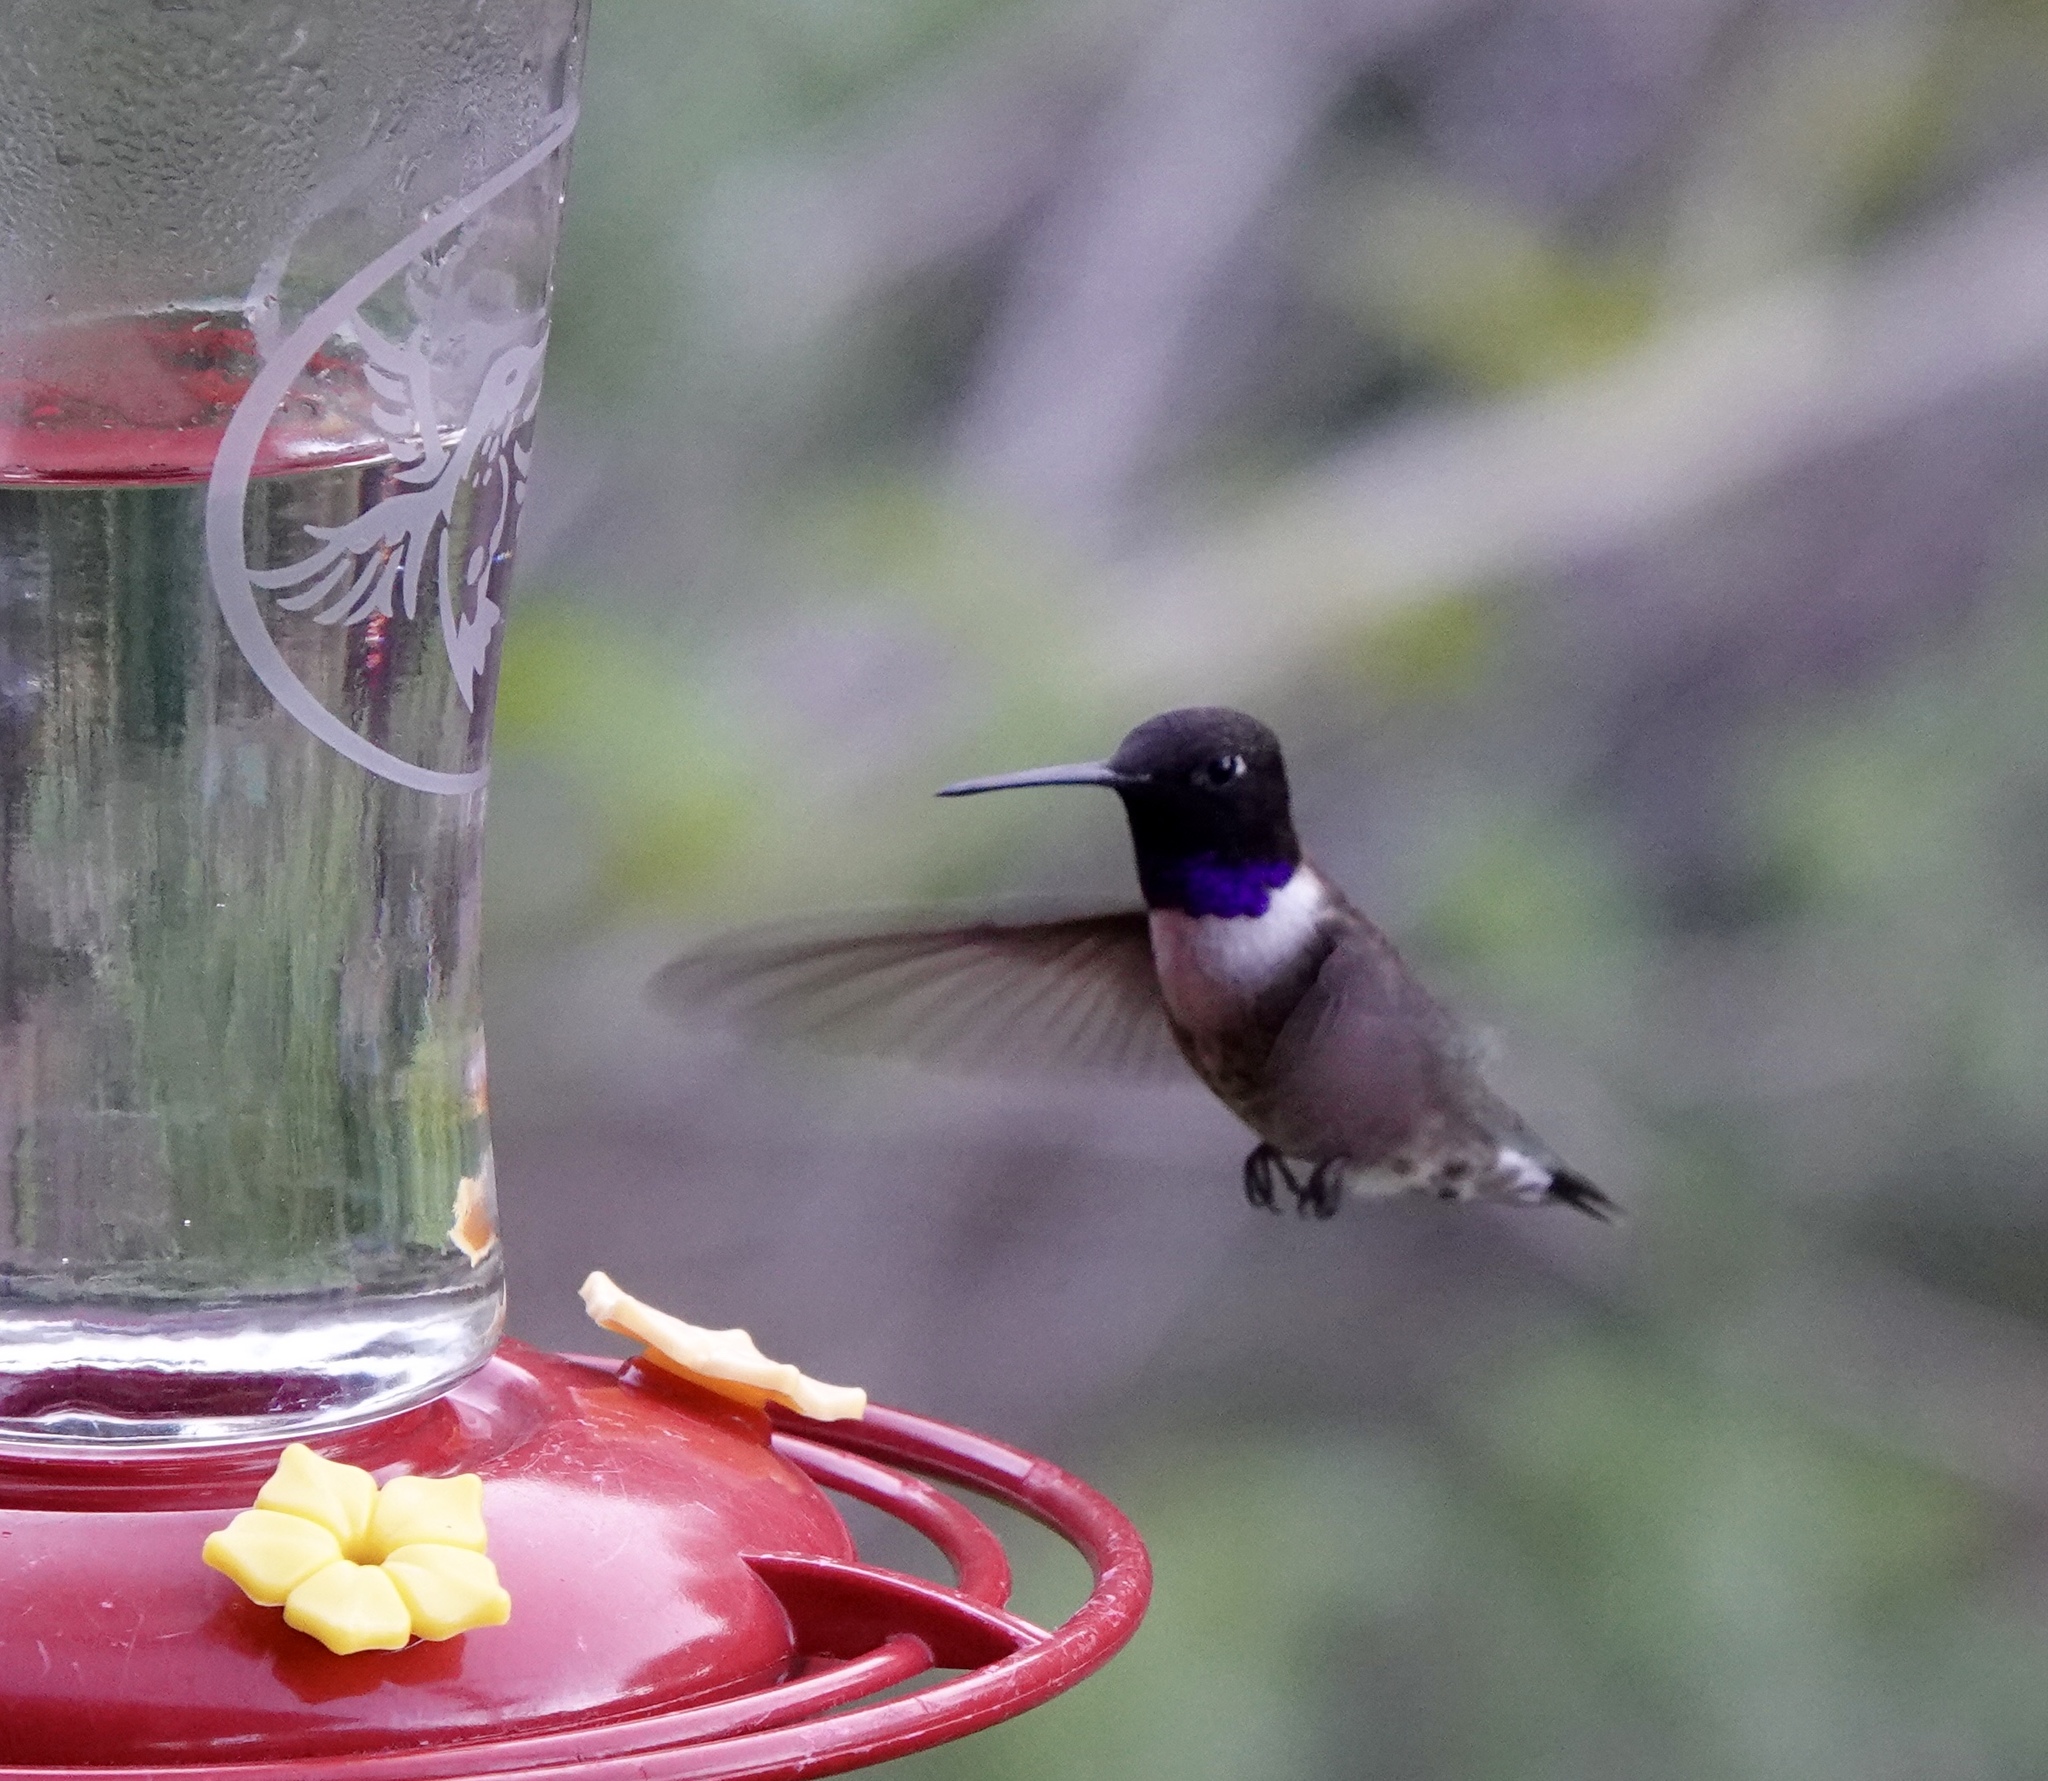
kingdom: Animalia
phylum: Chordata
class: Aves
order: Apodiformes
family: Trochilidae
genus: Archilochus
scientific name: Archilochus alexandri
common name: Black-chinned hummingbird
